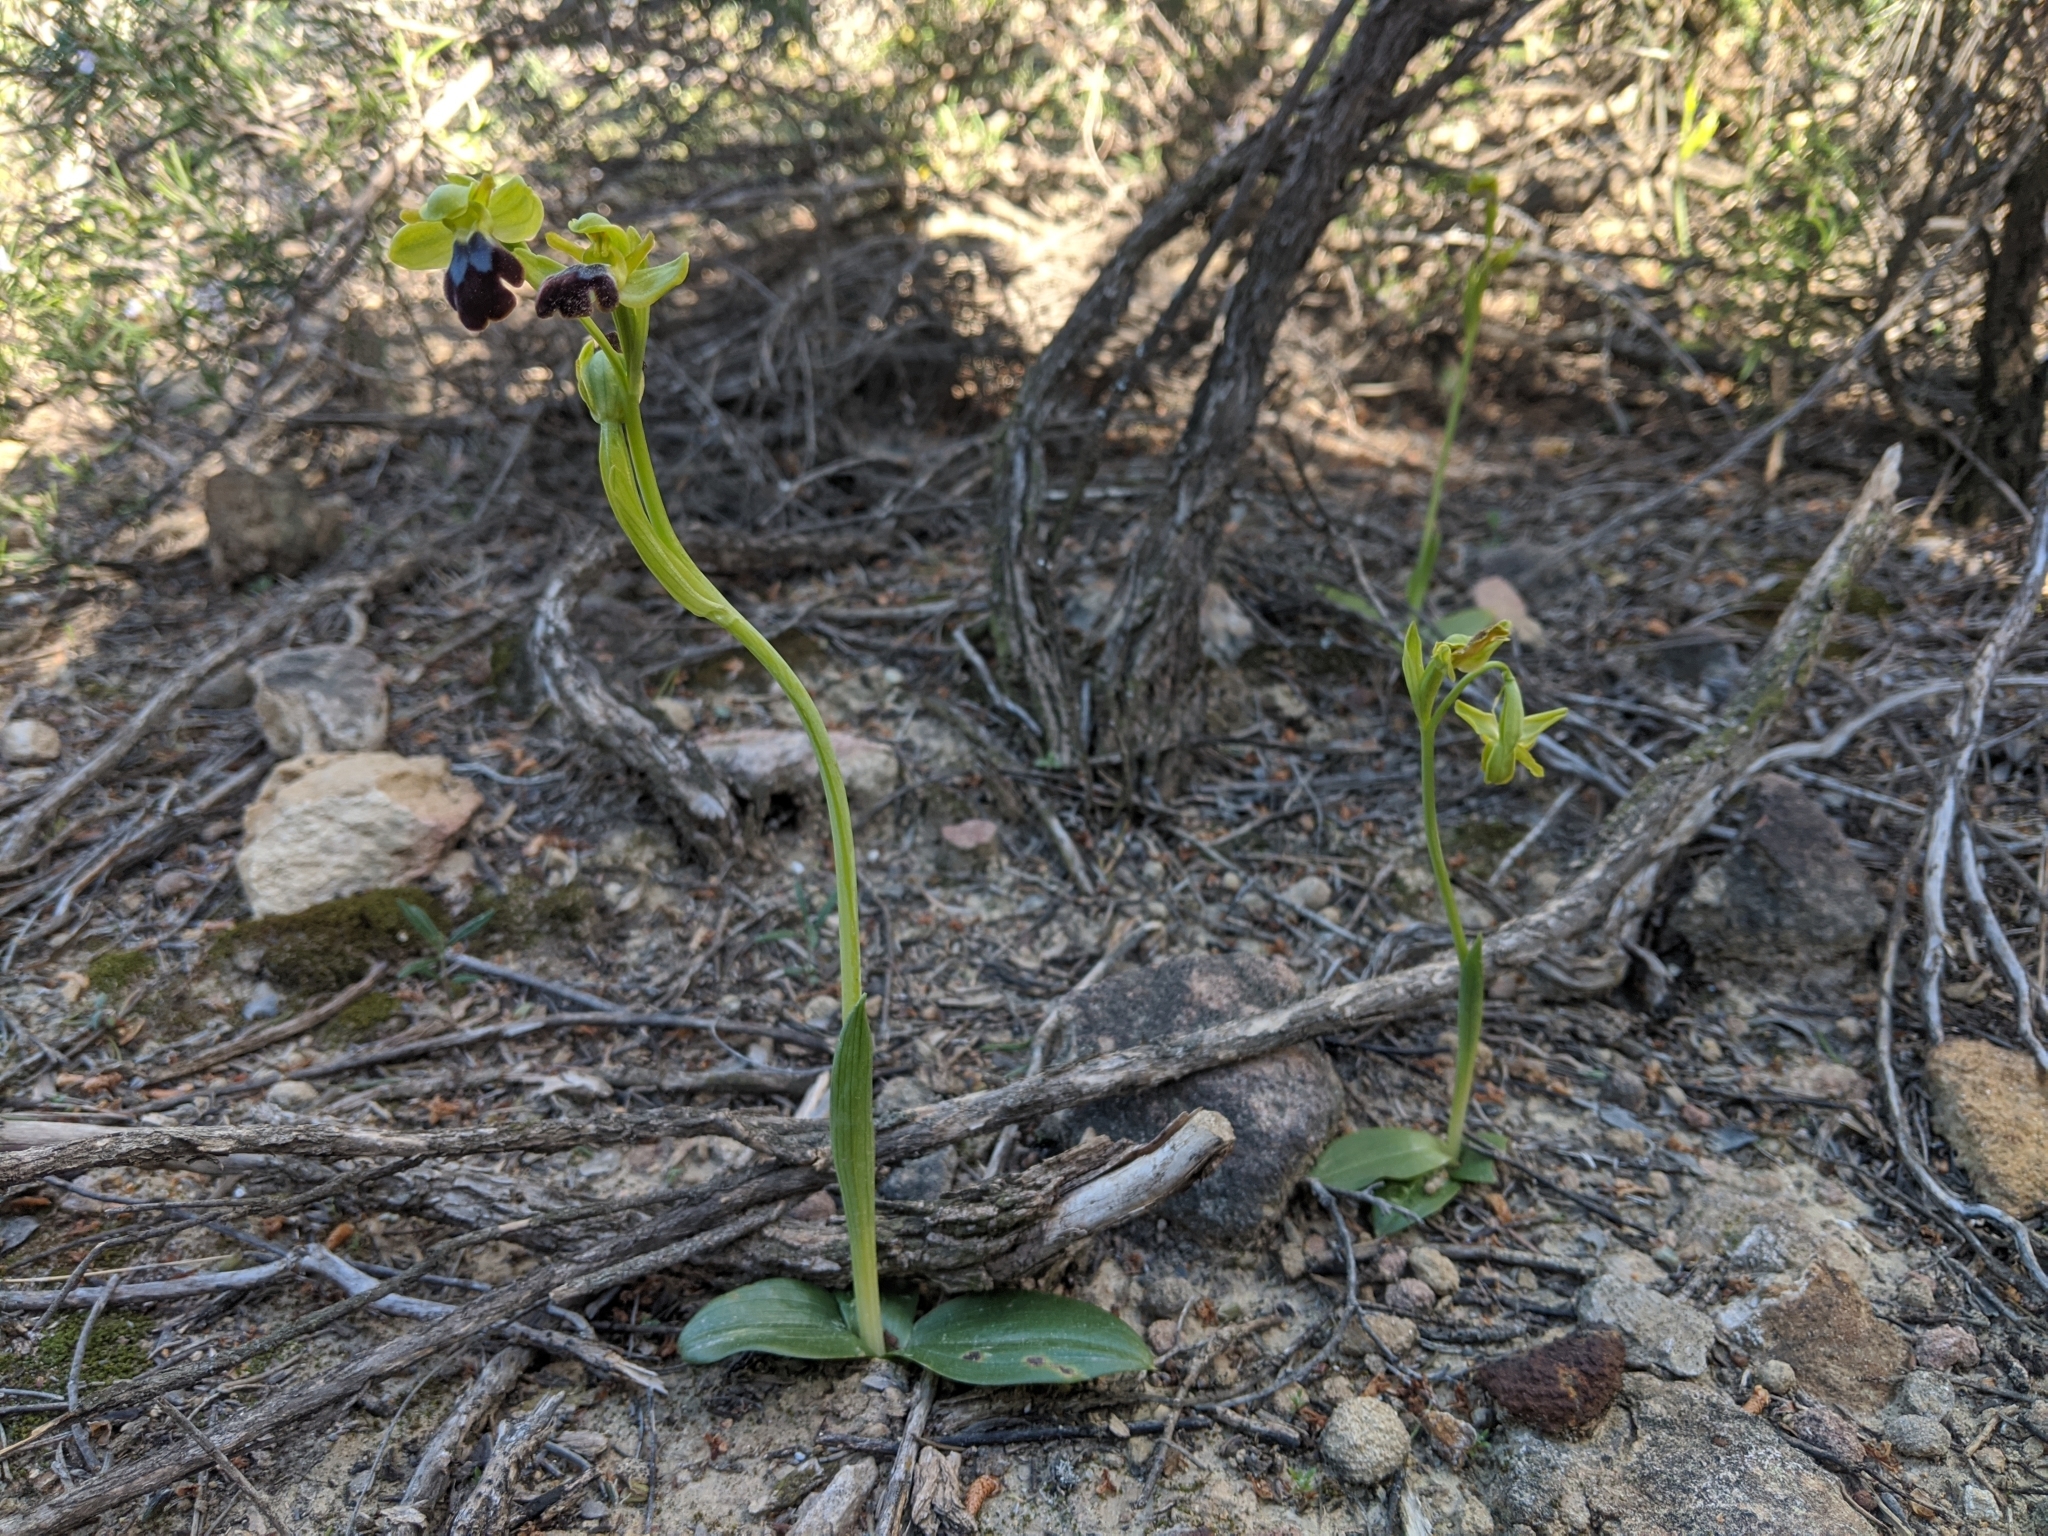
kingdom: Plantae
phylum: Tracheophyta
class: Liliopsida
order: Asparagales
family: Orchidaceae
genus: Ophrys
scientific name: Ophrys fusca
